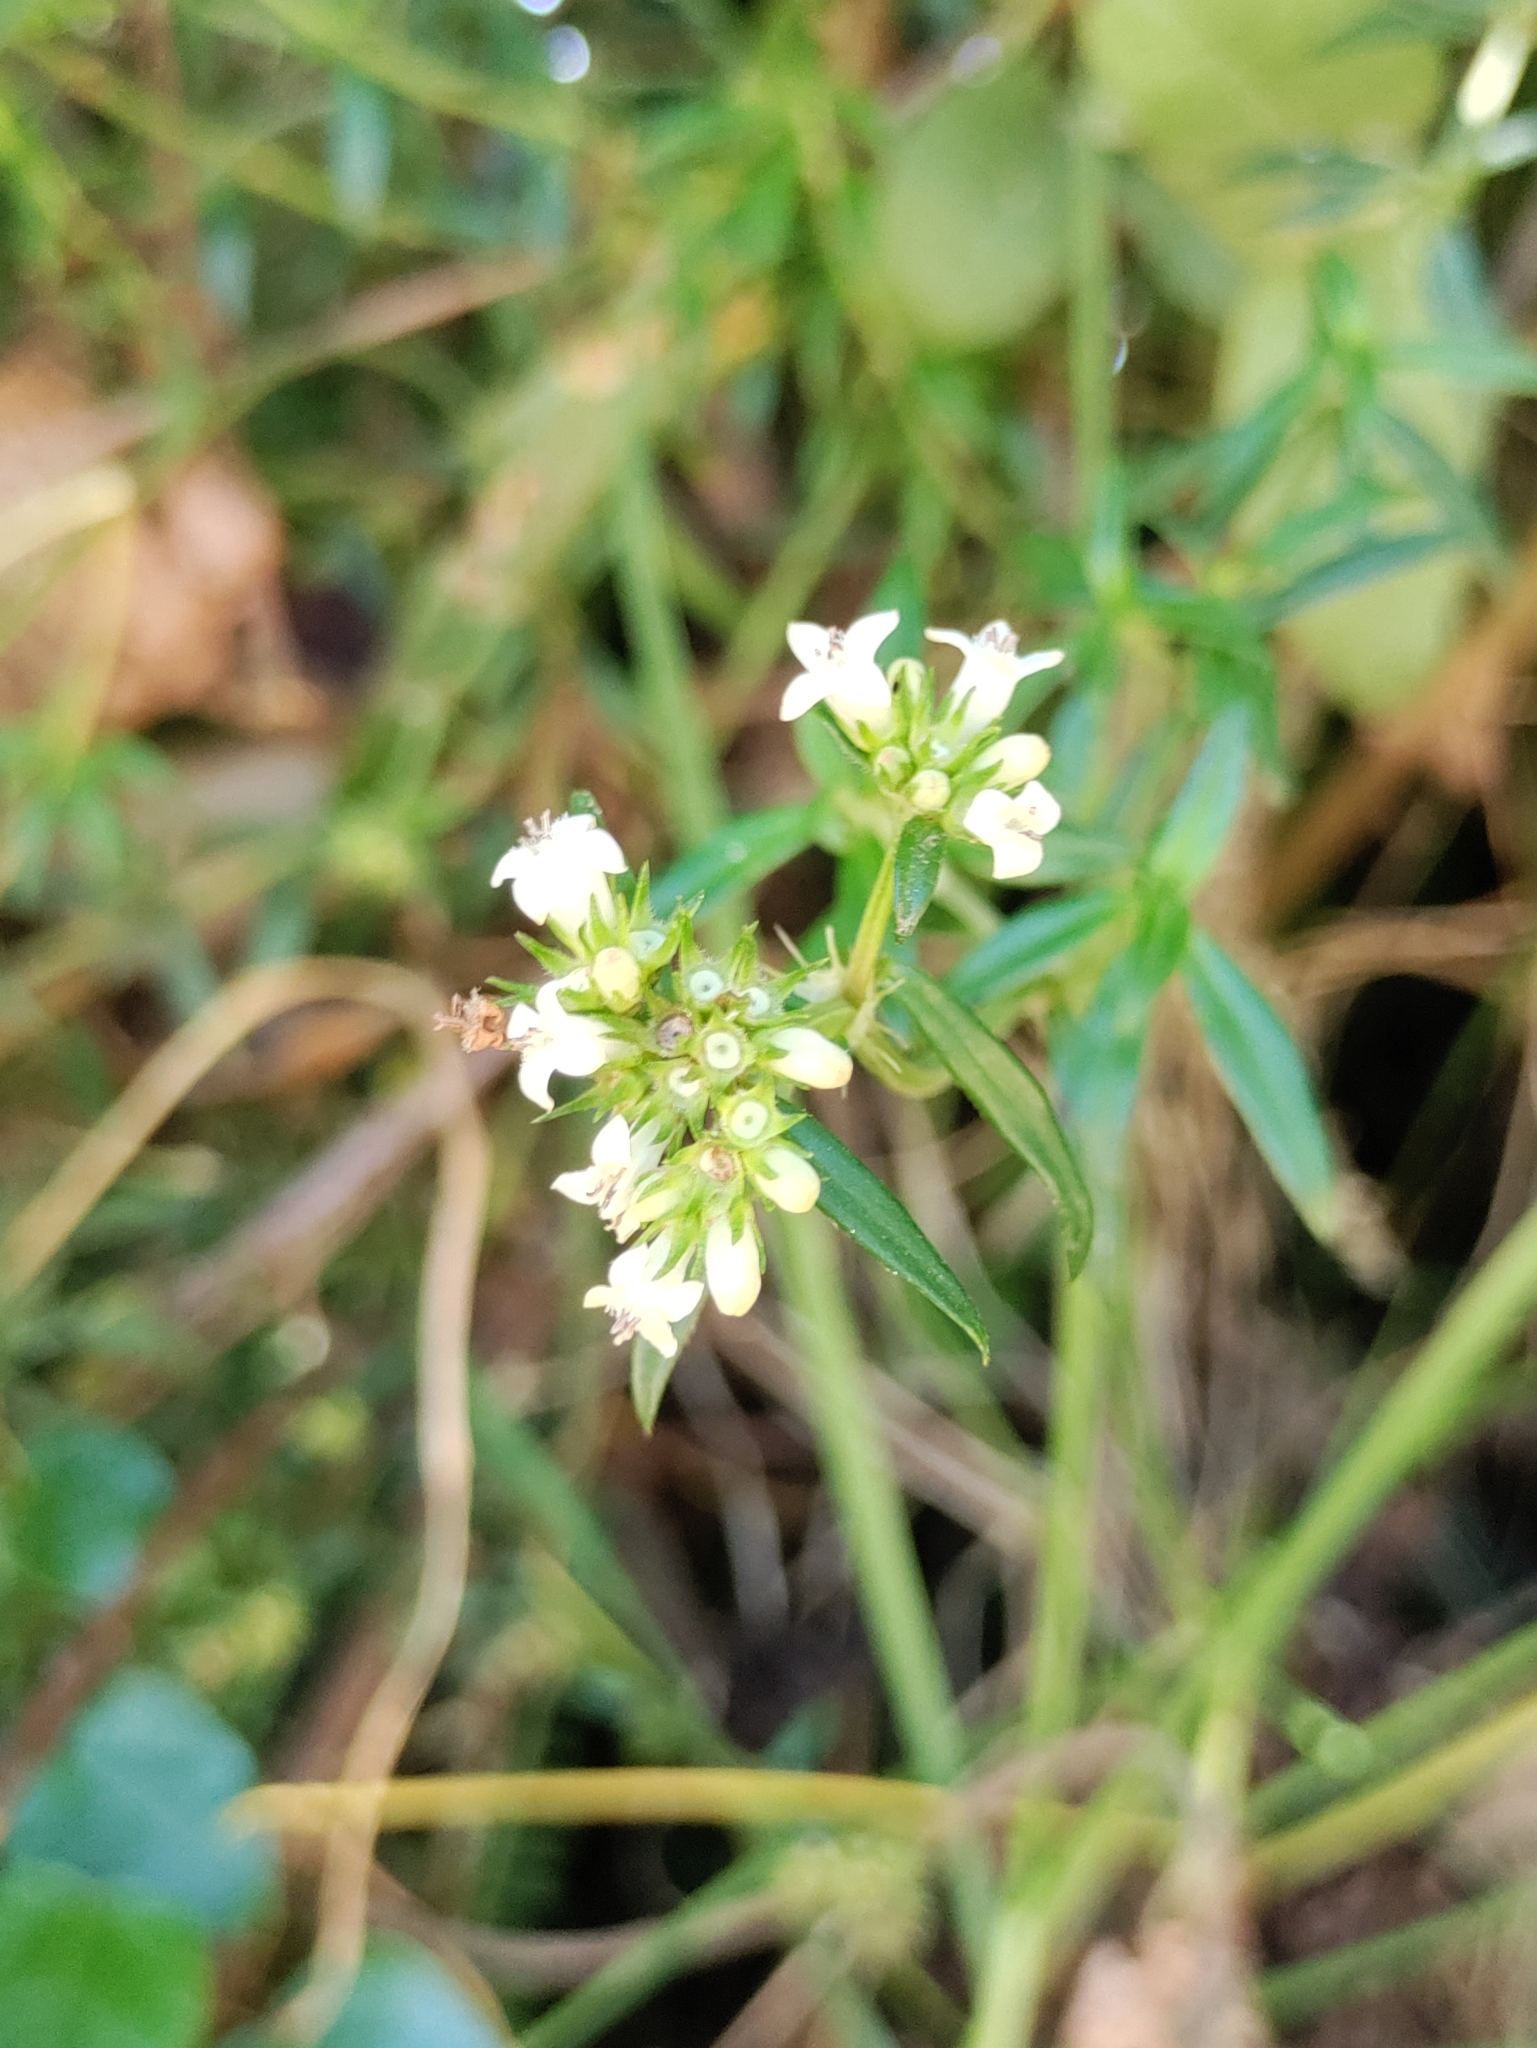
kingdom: Plantae
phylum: Tracheophyta
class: Magnoliopsida
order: Gentianales
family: Rubiaceae
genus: Galianthe
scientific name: Galianthe bogotensis
